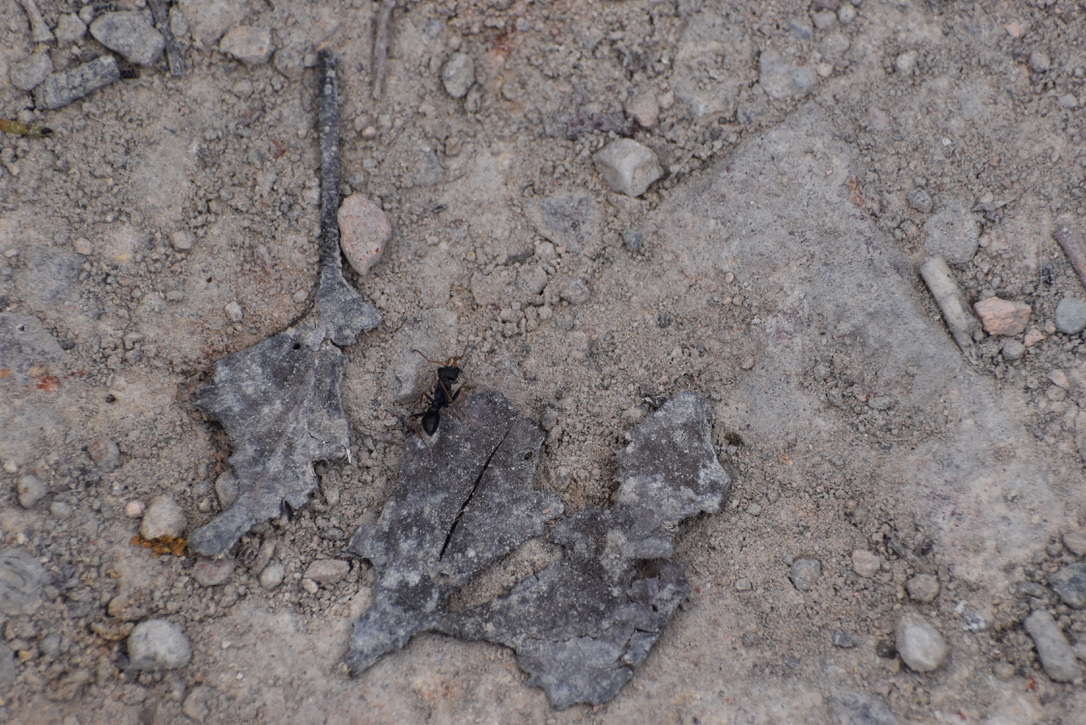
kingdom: Animalia
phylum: Arthropoda
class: Insecta
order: Hymenoptera
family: Formicidae
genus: Myrmecia
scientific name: Myrmecia pilosula
